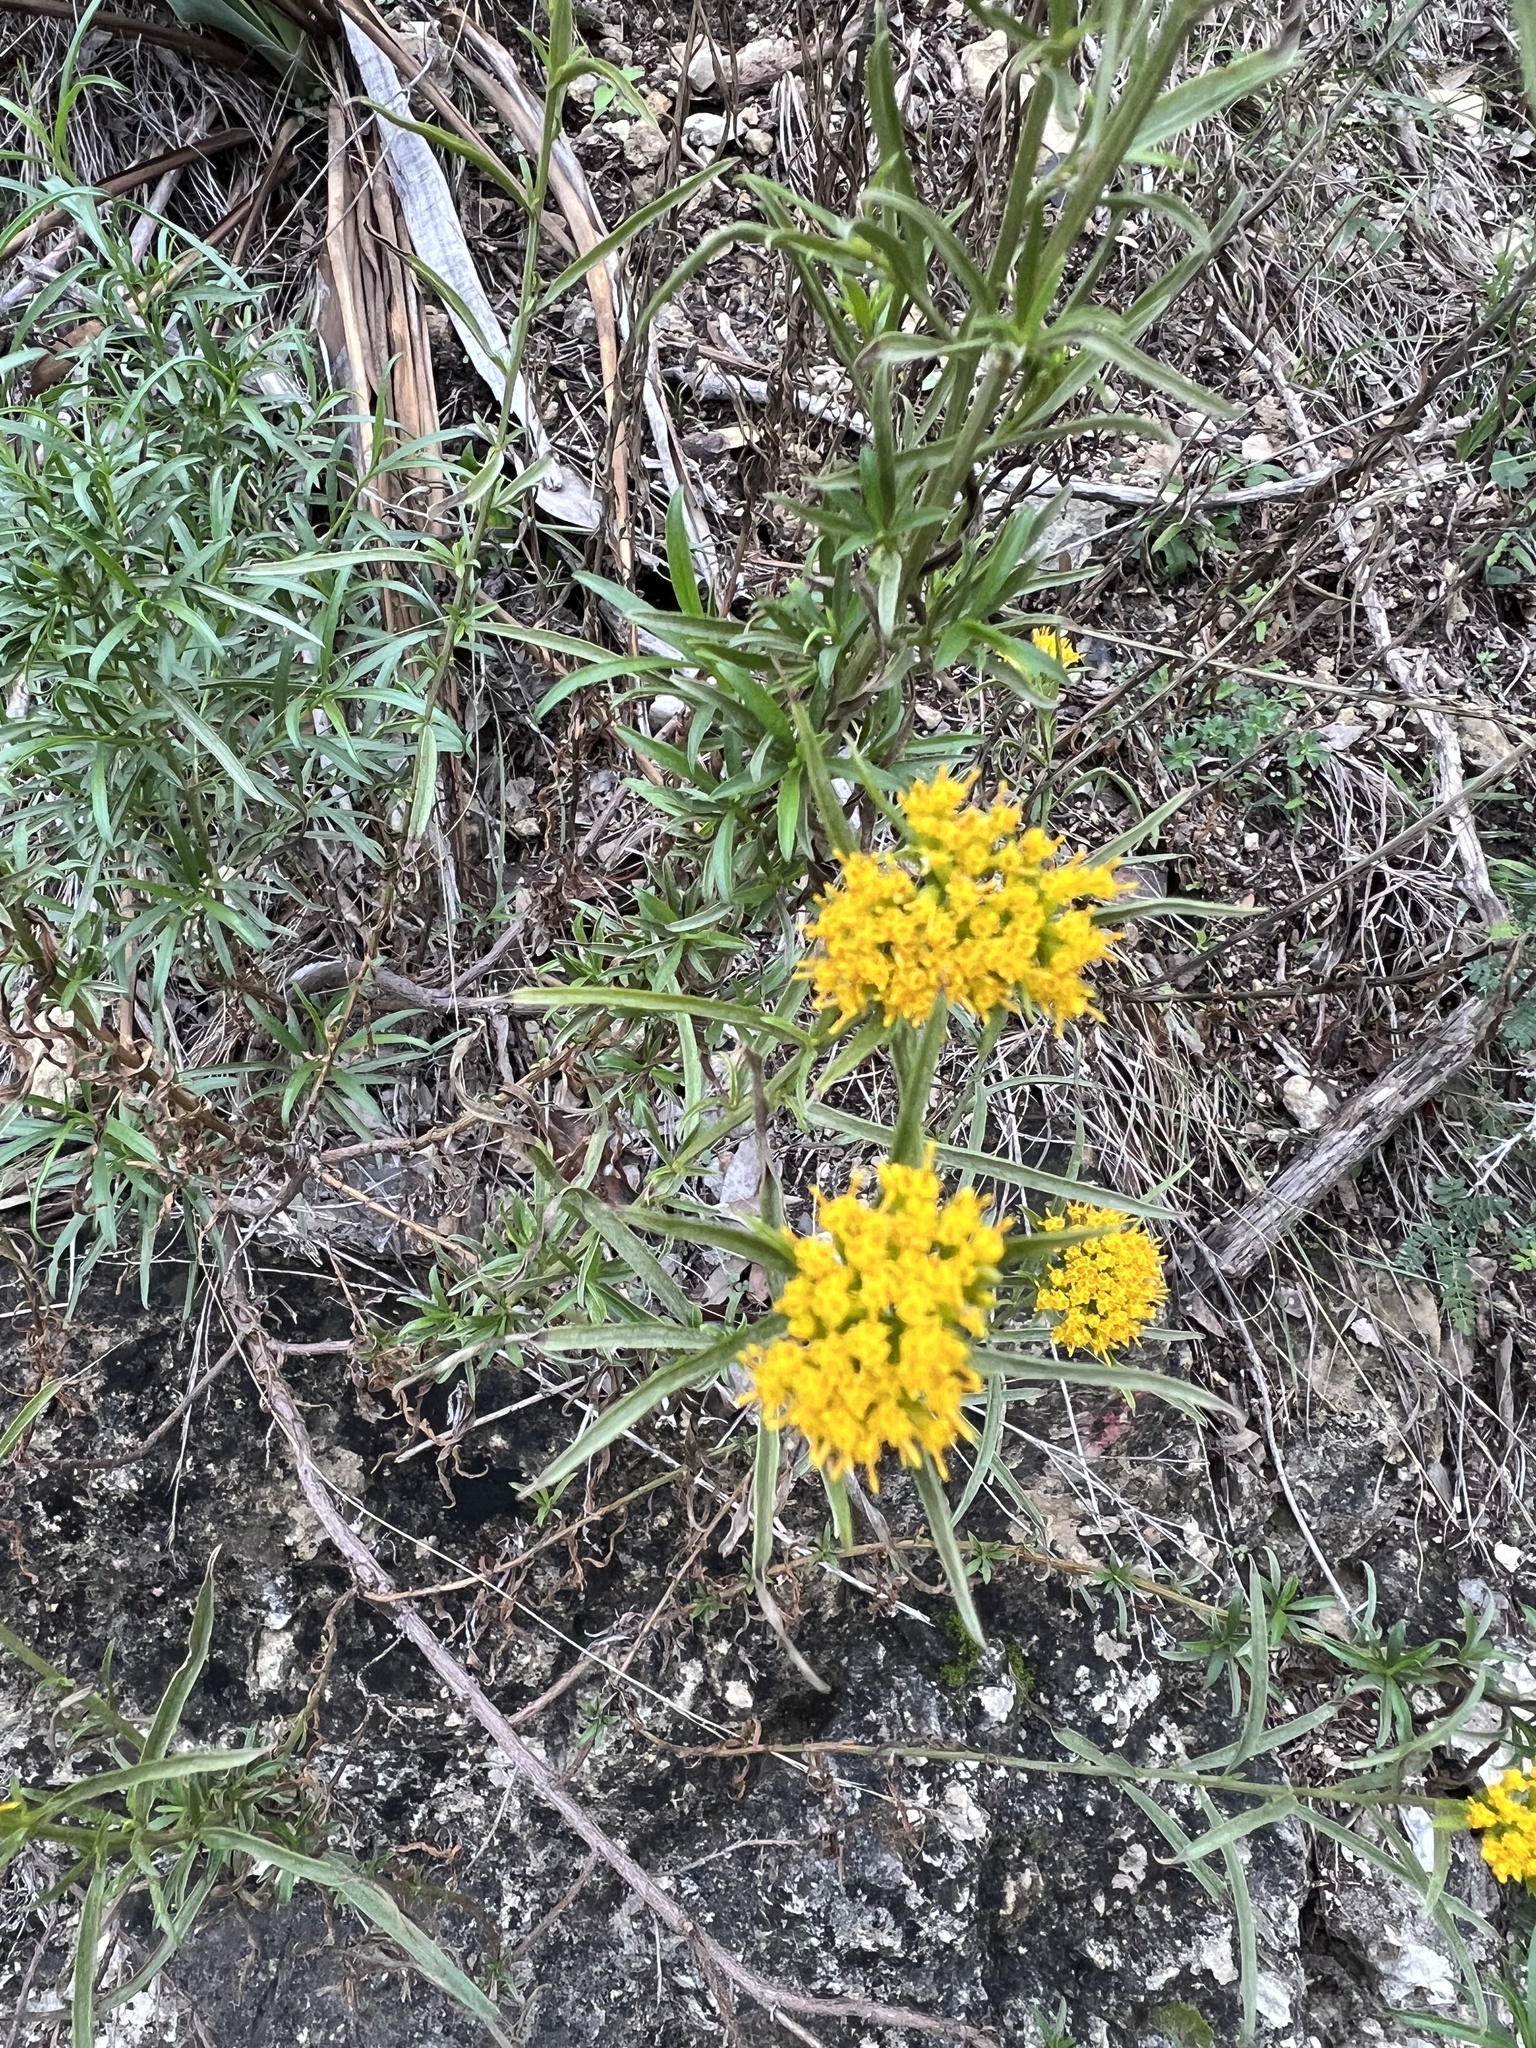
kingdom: Plantae
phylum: Tracheophyta
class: Magnoliopsida
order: Asterales
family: Asteraceae
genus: Gymnosperma
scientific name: Gymnosperma glutinosum
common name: Gumhead
